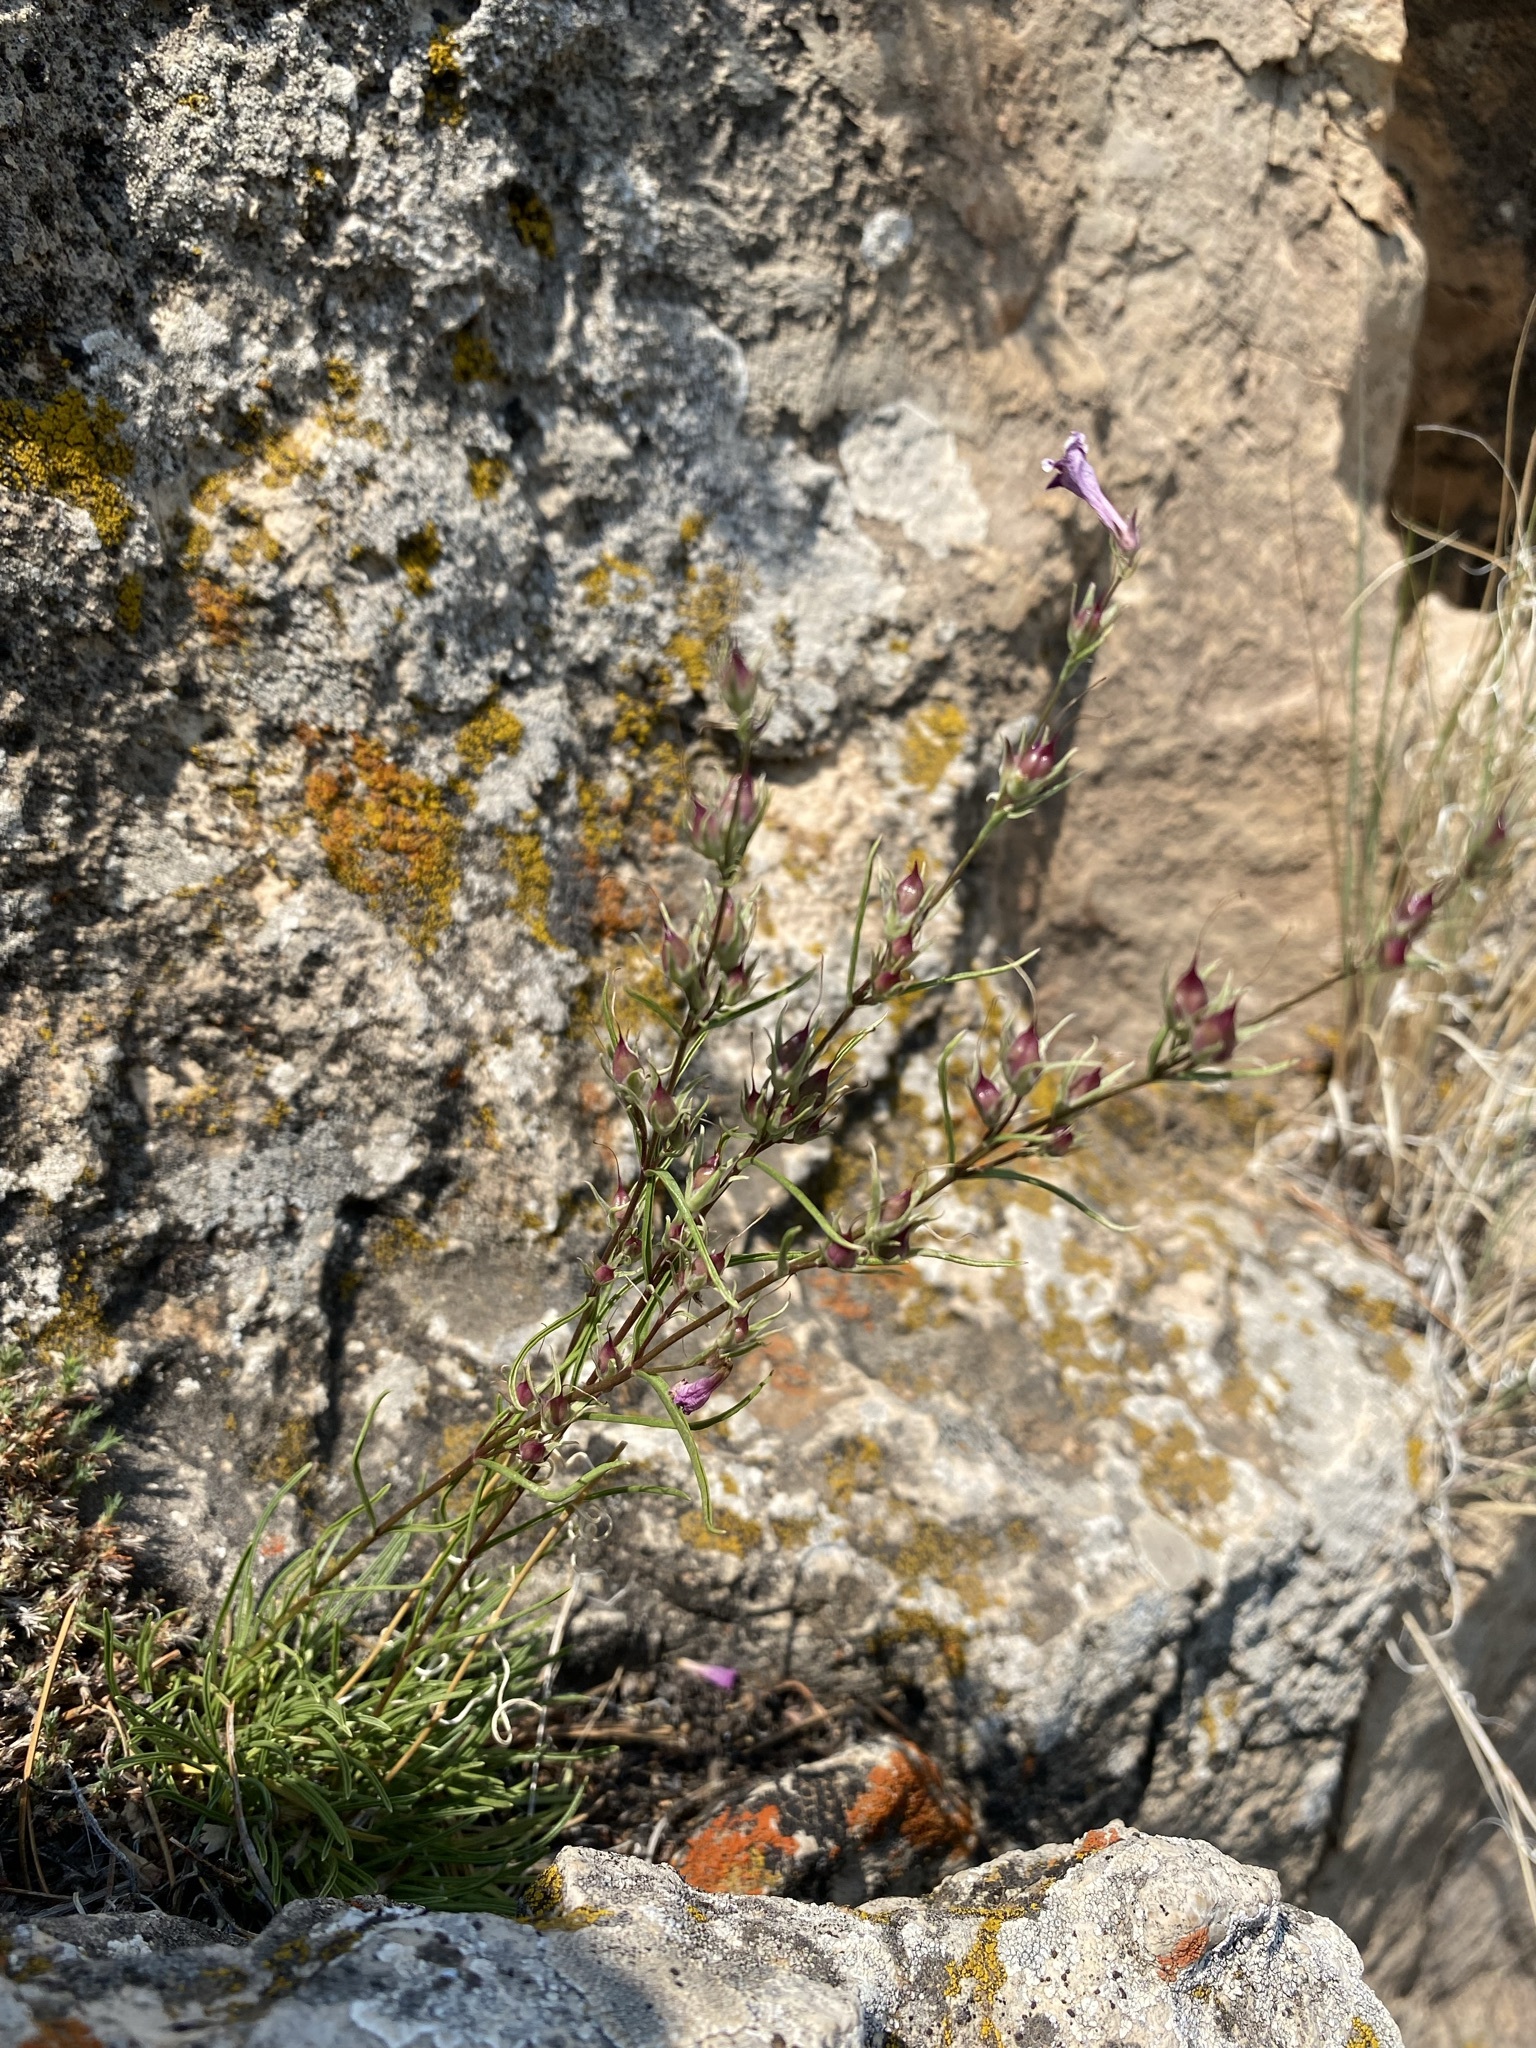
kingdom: Plantae
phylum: Tracheophyta
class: Magnoliopsida
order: Lamiales
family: Plantaginaceae
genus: Penstemon
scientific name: Penstemon laricifolius
